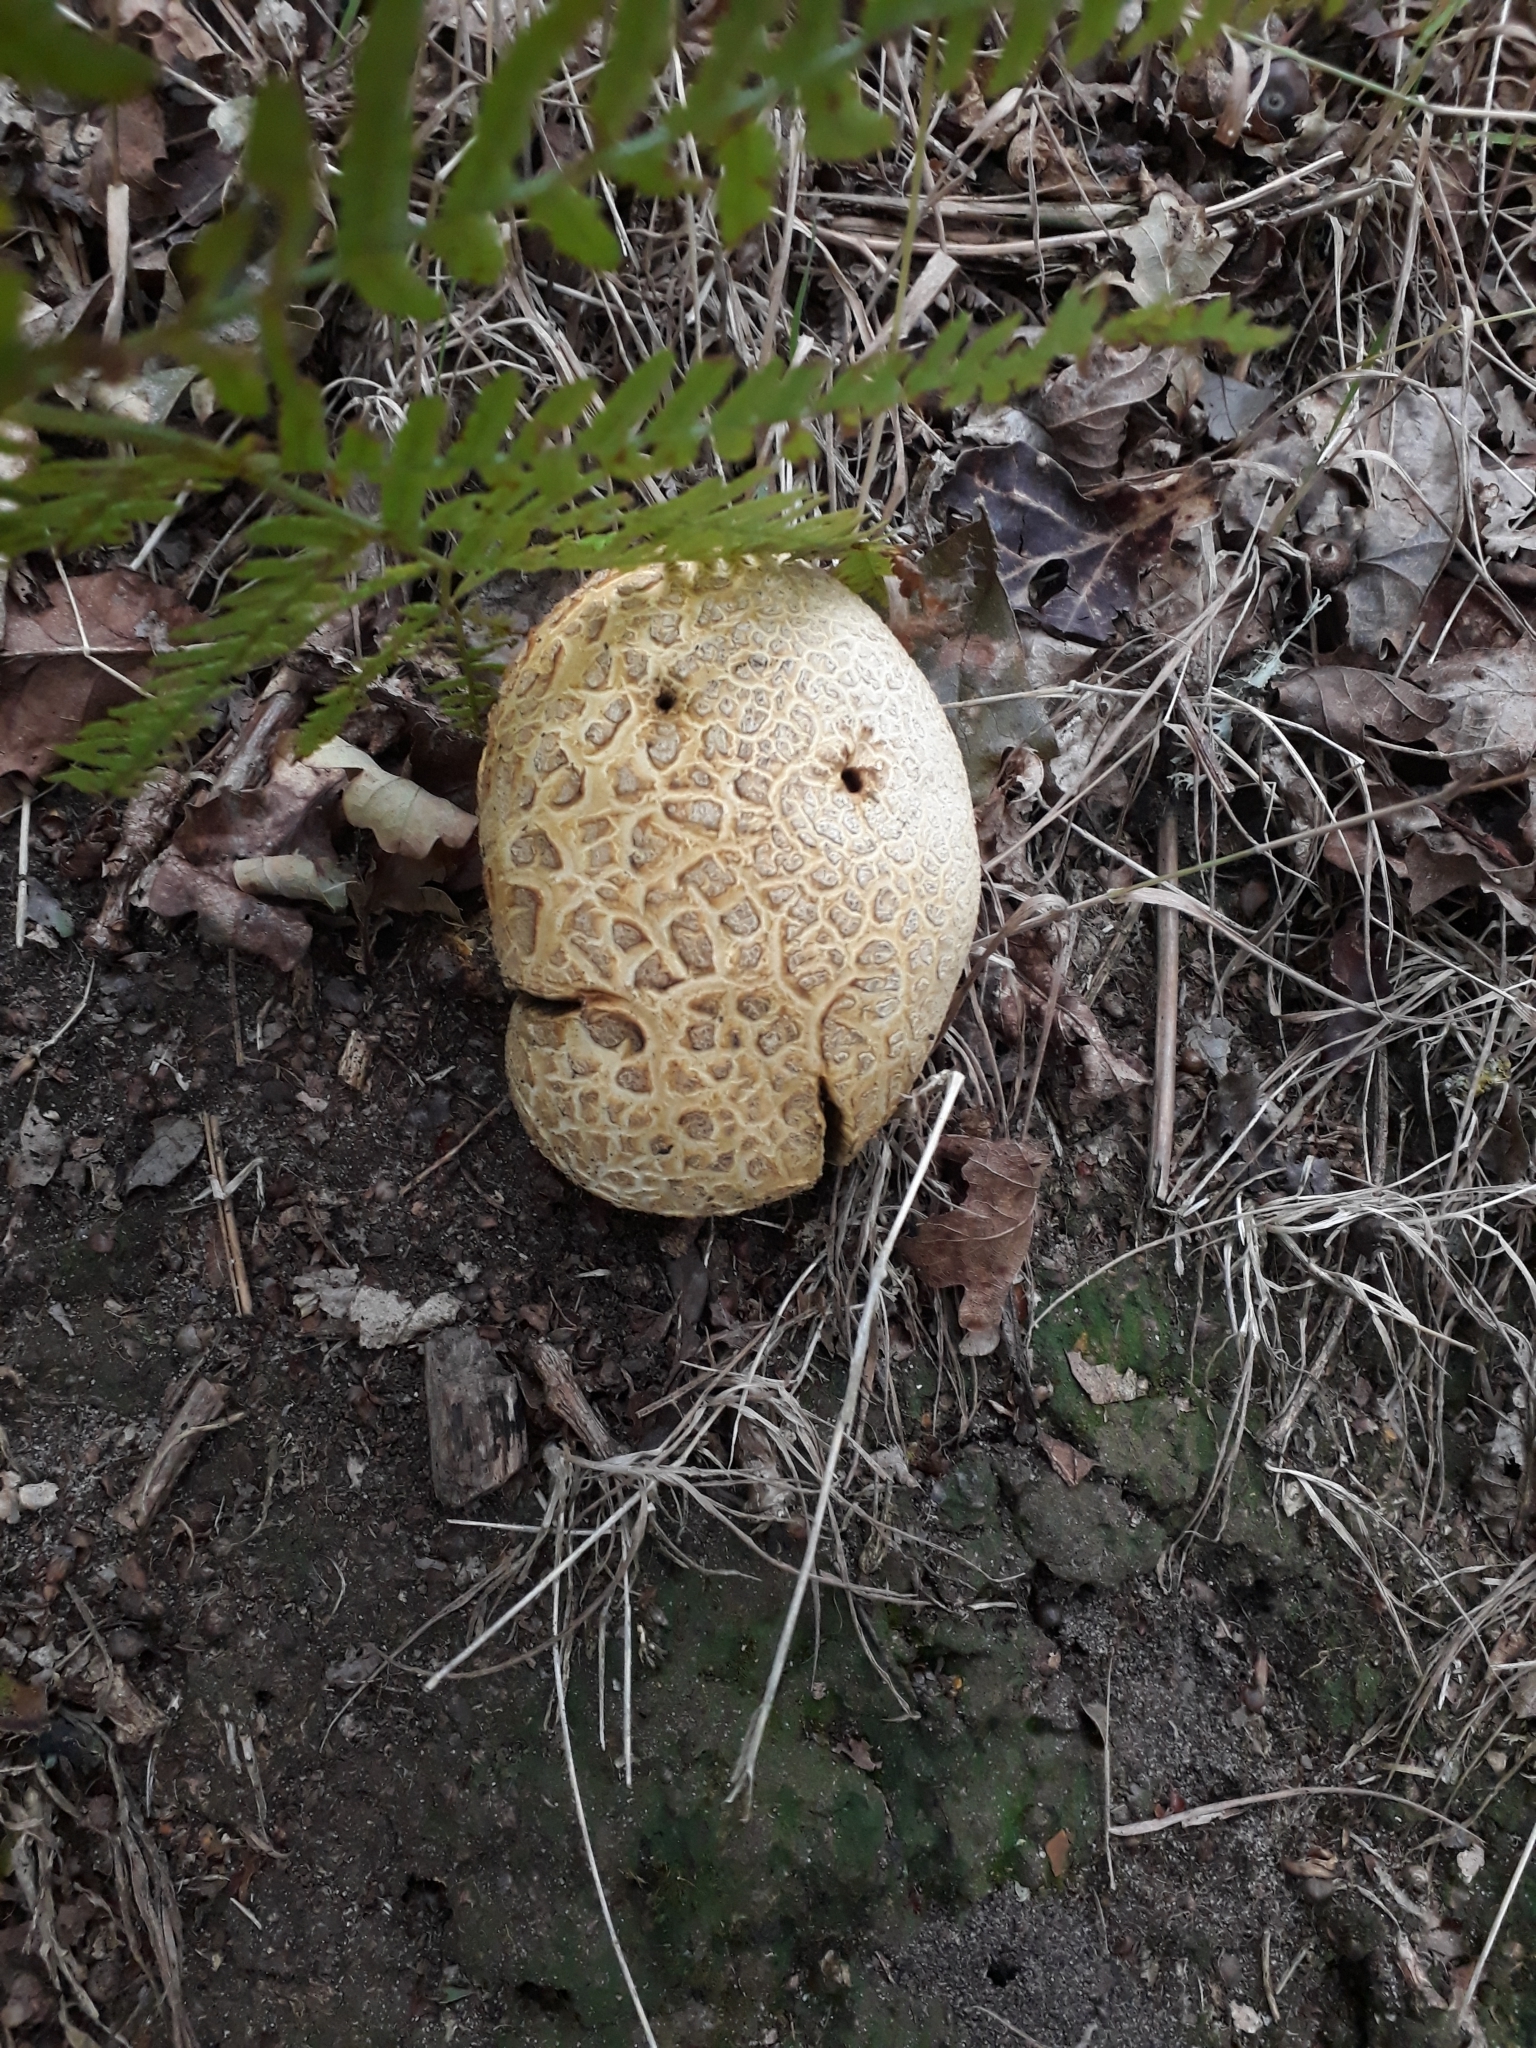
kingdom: Fungi
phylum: Basidiomycota
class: Agaricomycetes
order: Boletales
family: Sclerodermataceae
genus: Scleroderma
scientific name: Scleroderma citrinum
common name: Common earthball
